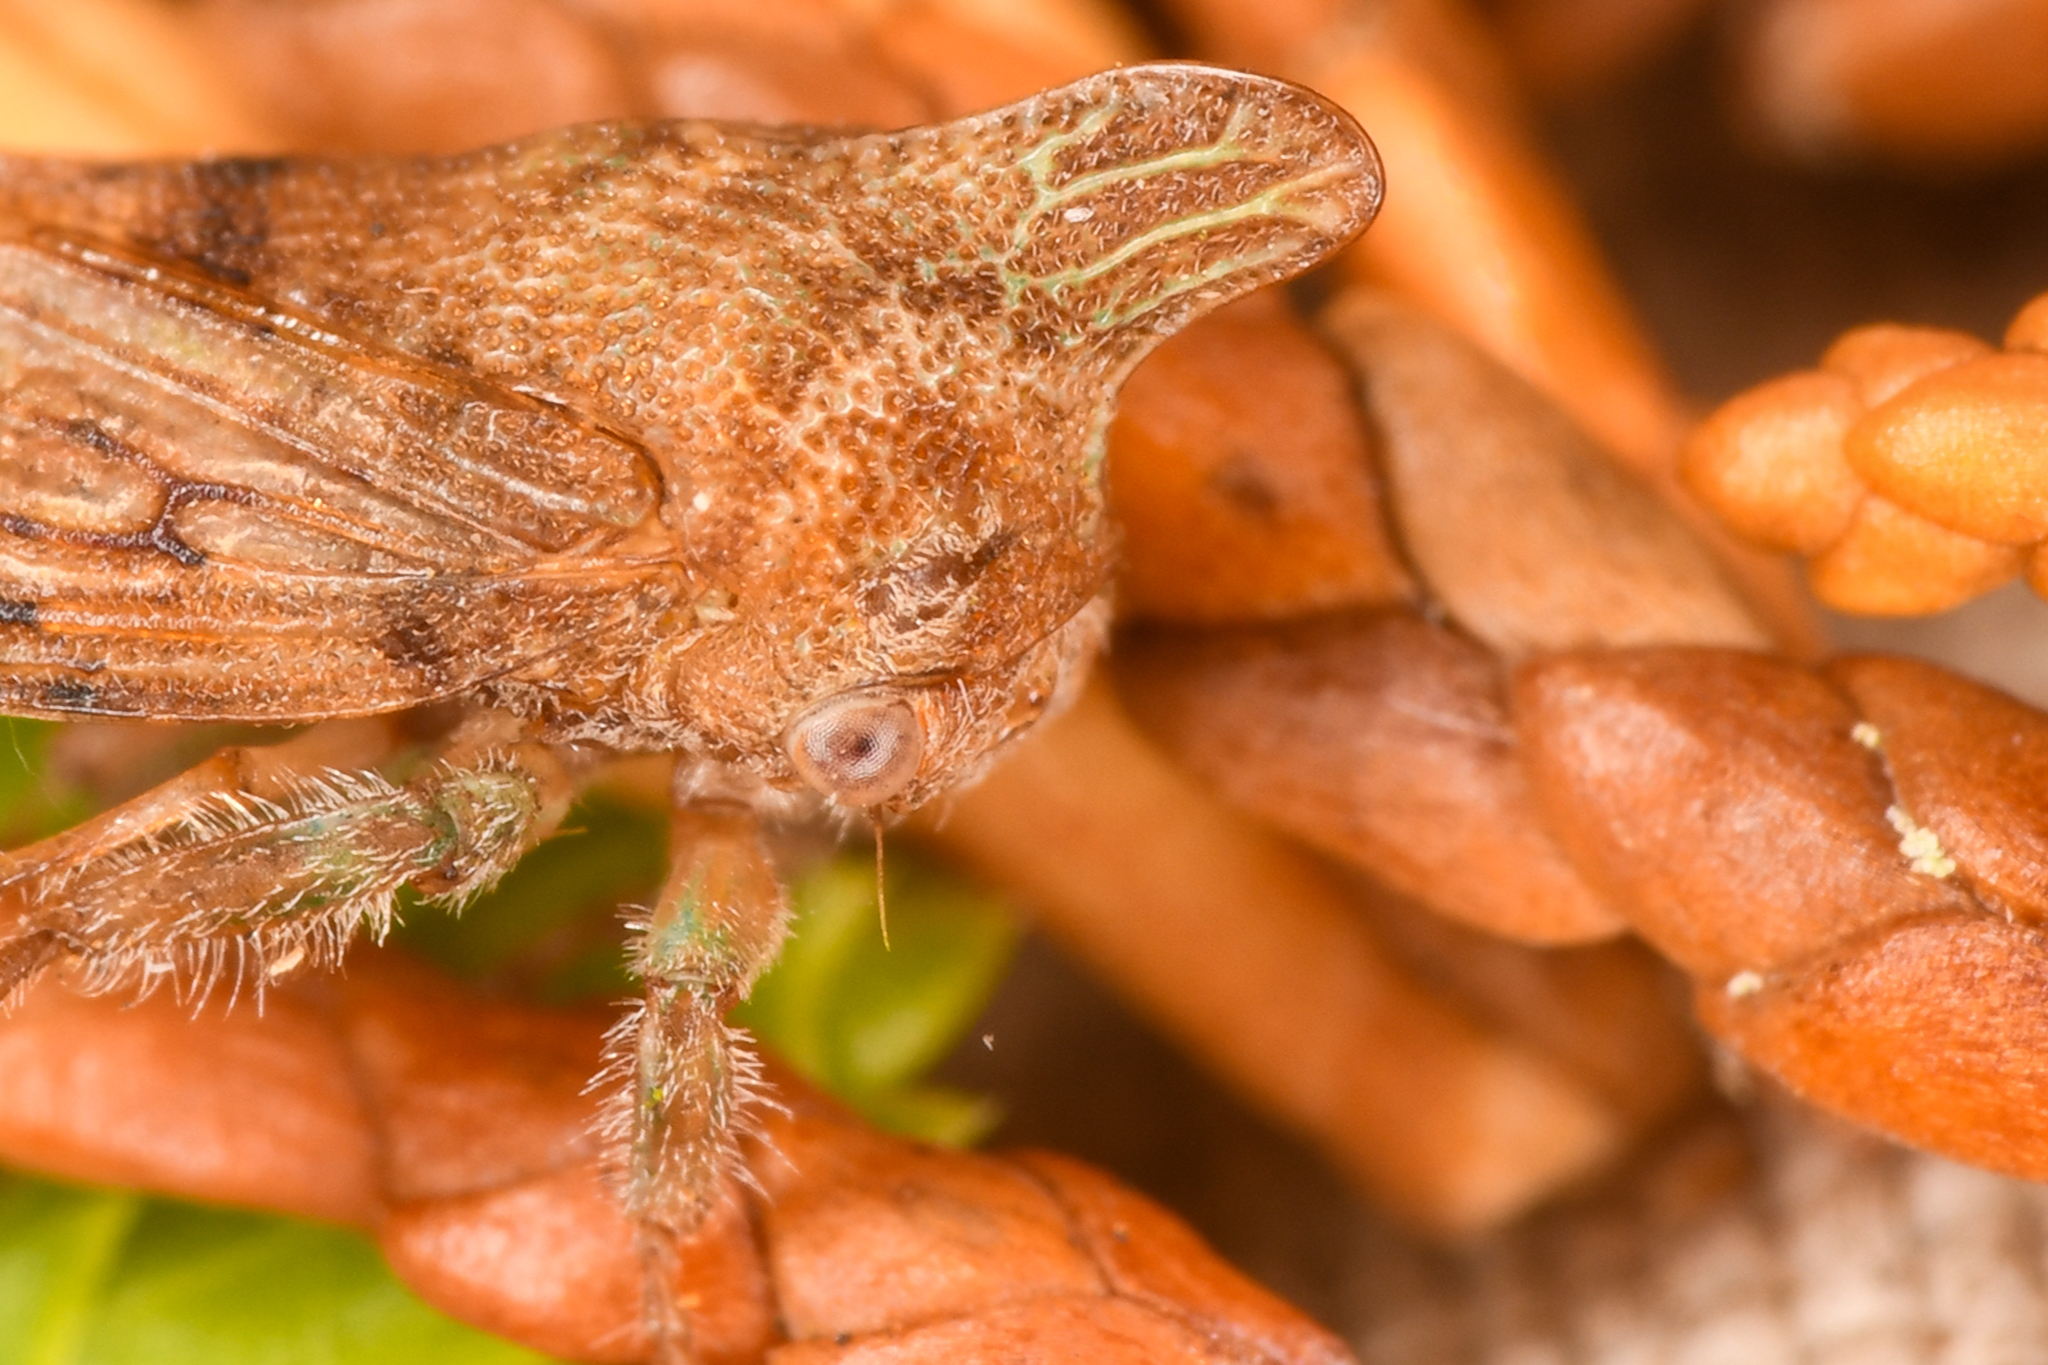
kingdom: Animalia
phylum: Arthropoda
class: Insecta
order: Hemiptera
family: Membracidae
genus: Platycotis
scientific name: Platycotis minax
